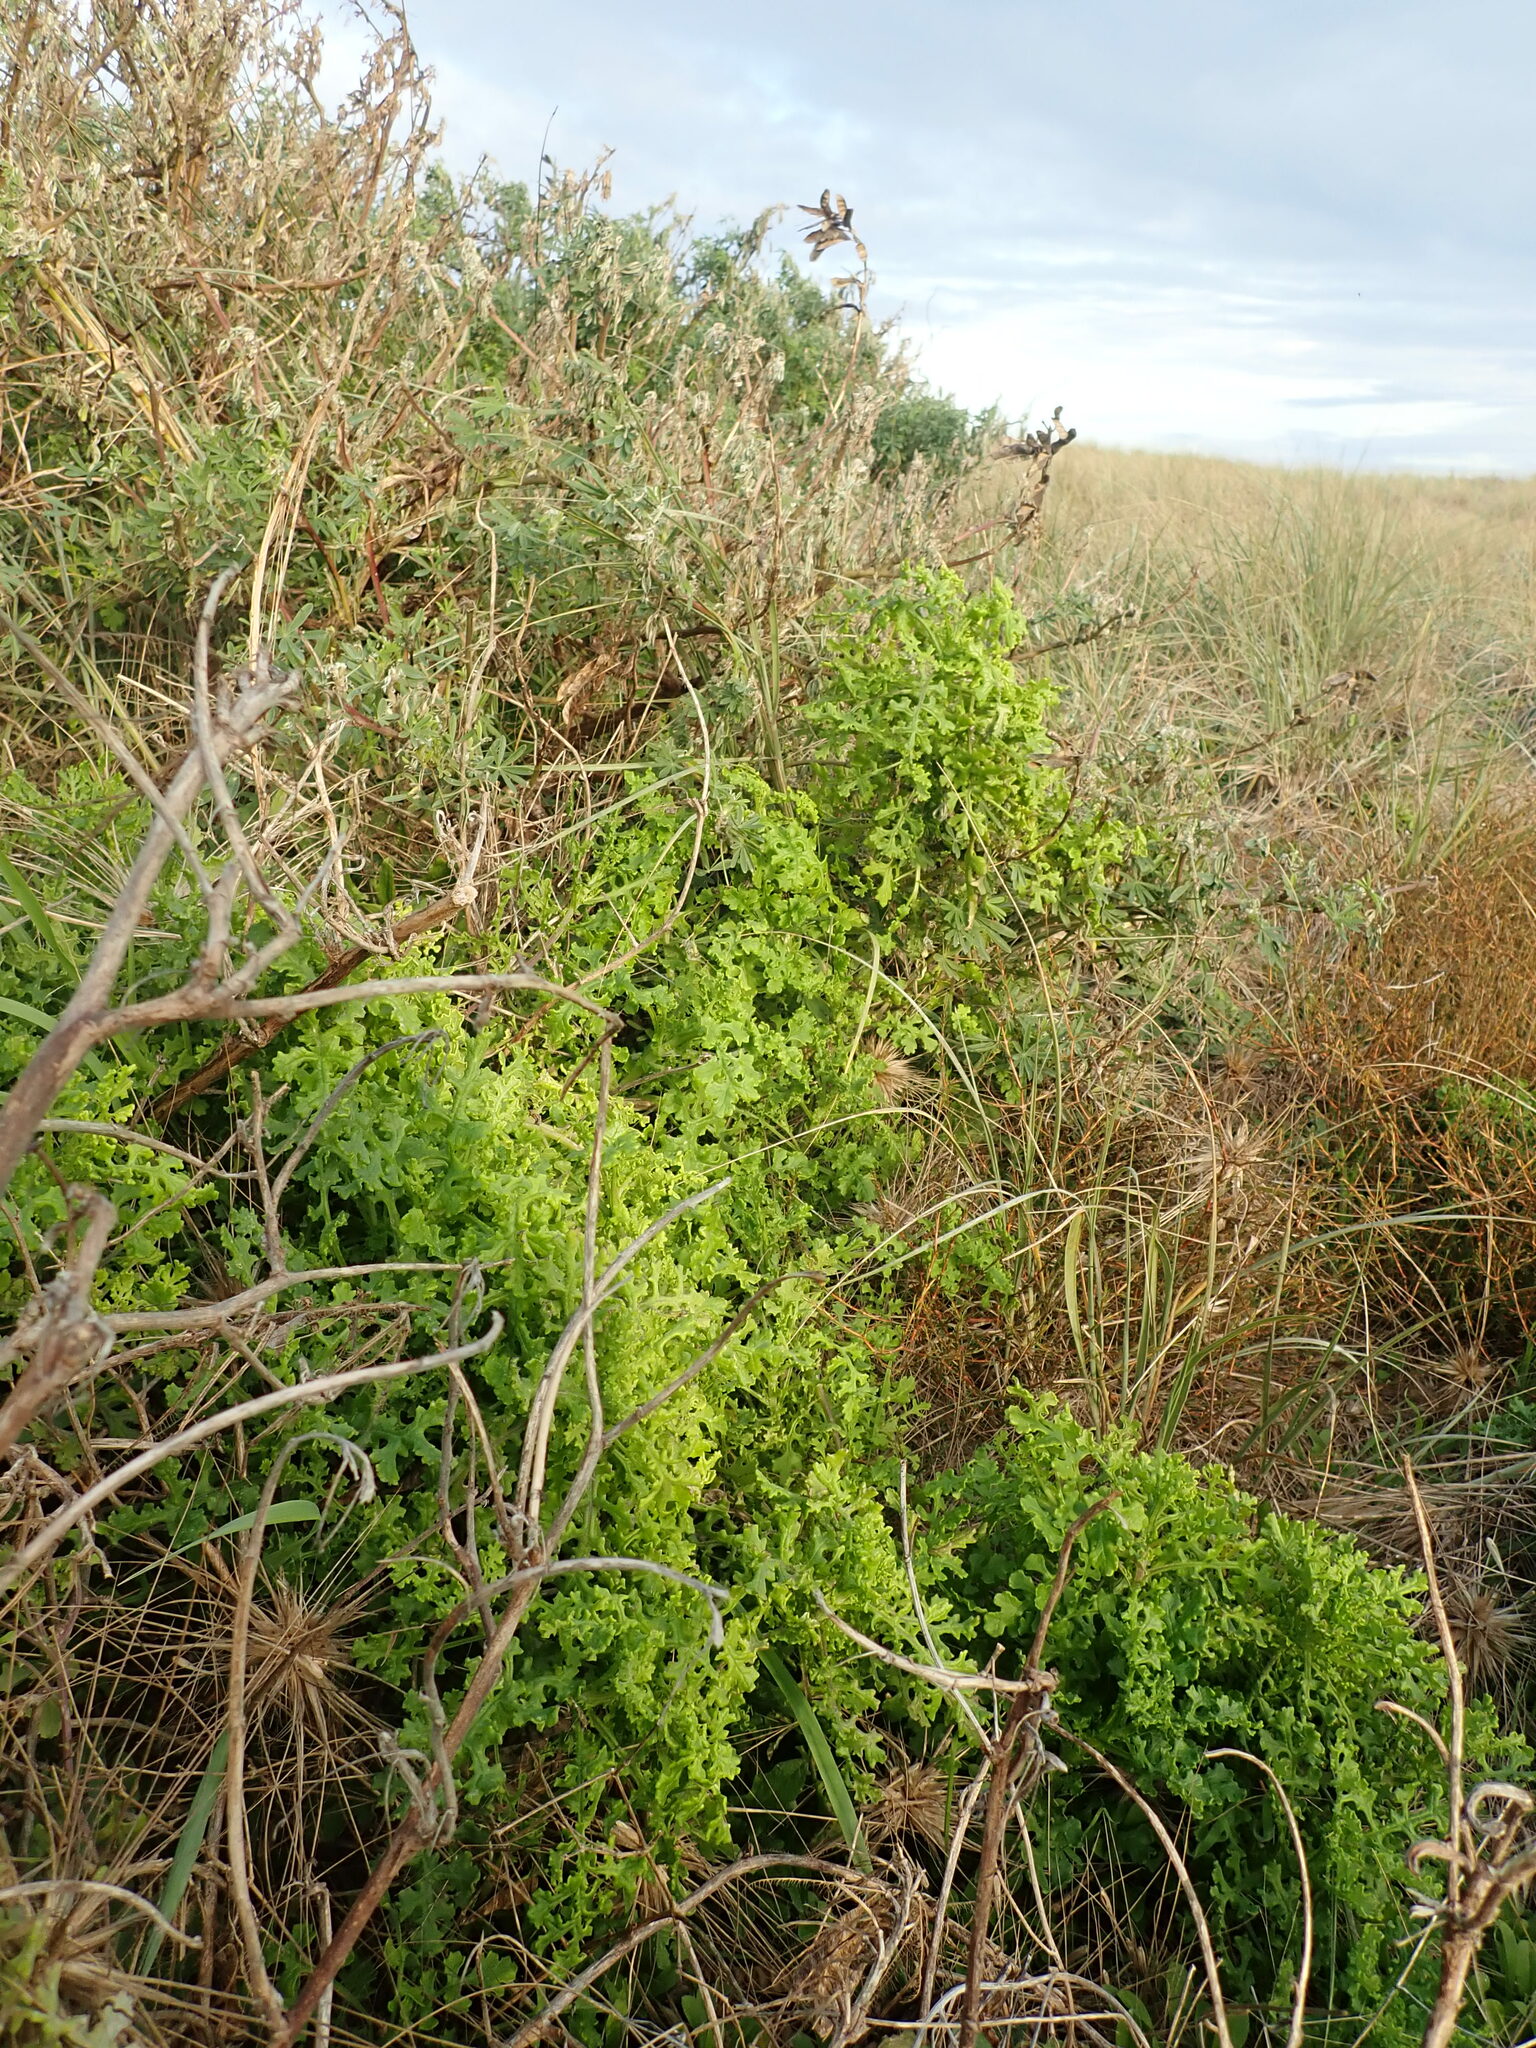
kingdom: Plantae
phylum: Tracheophyta
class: Magnoliopsida
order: Asterales
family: Asteraceae
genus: Senecio
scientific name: Senecio elegans
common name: Purple groundsel
